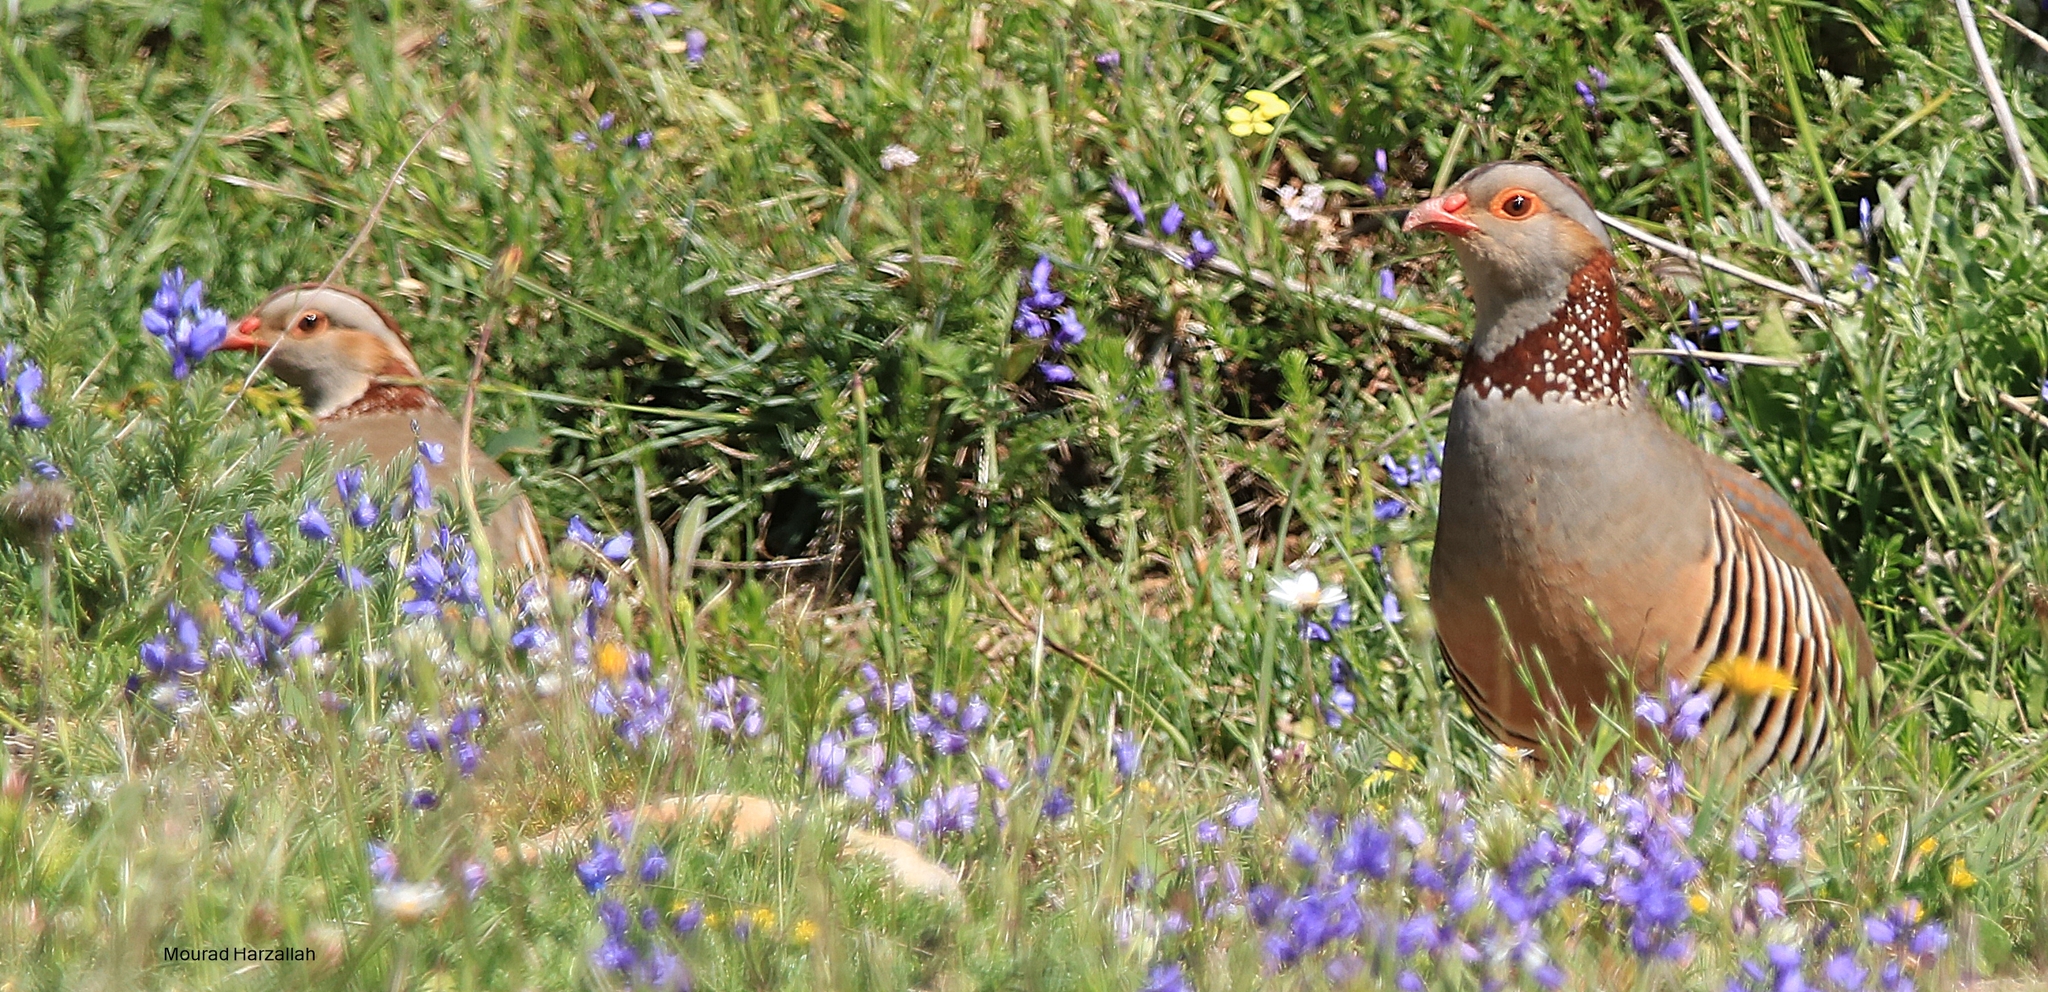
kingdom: Animalia
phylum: Chordata
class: Aves
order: Galliformes
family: Phasianidae
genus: Alectoris
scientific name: Alectoris barbara
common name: Barbary partridge
